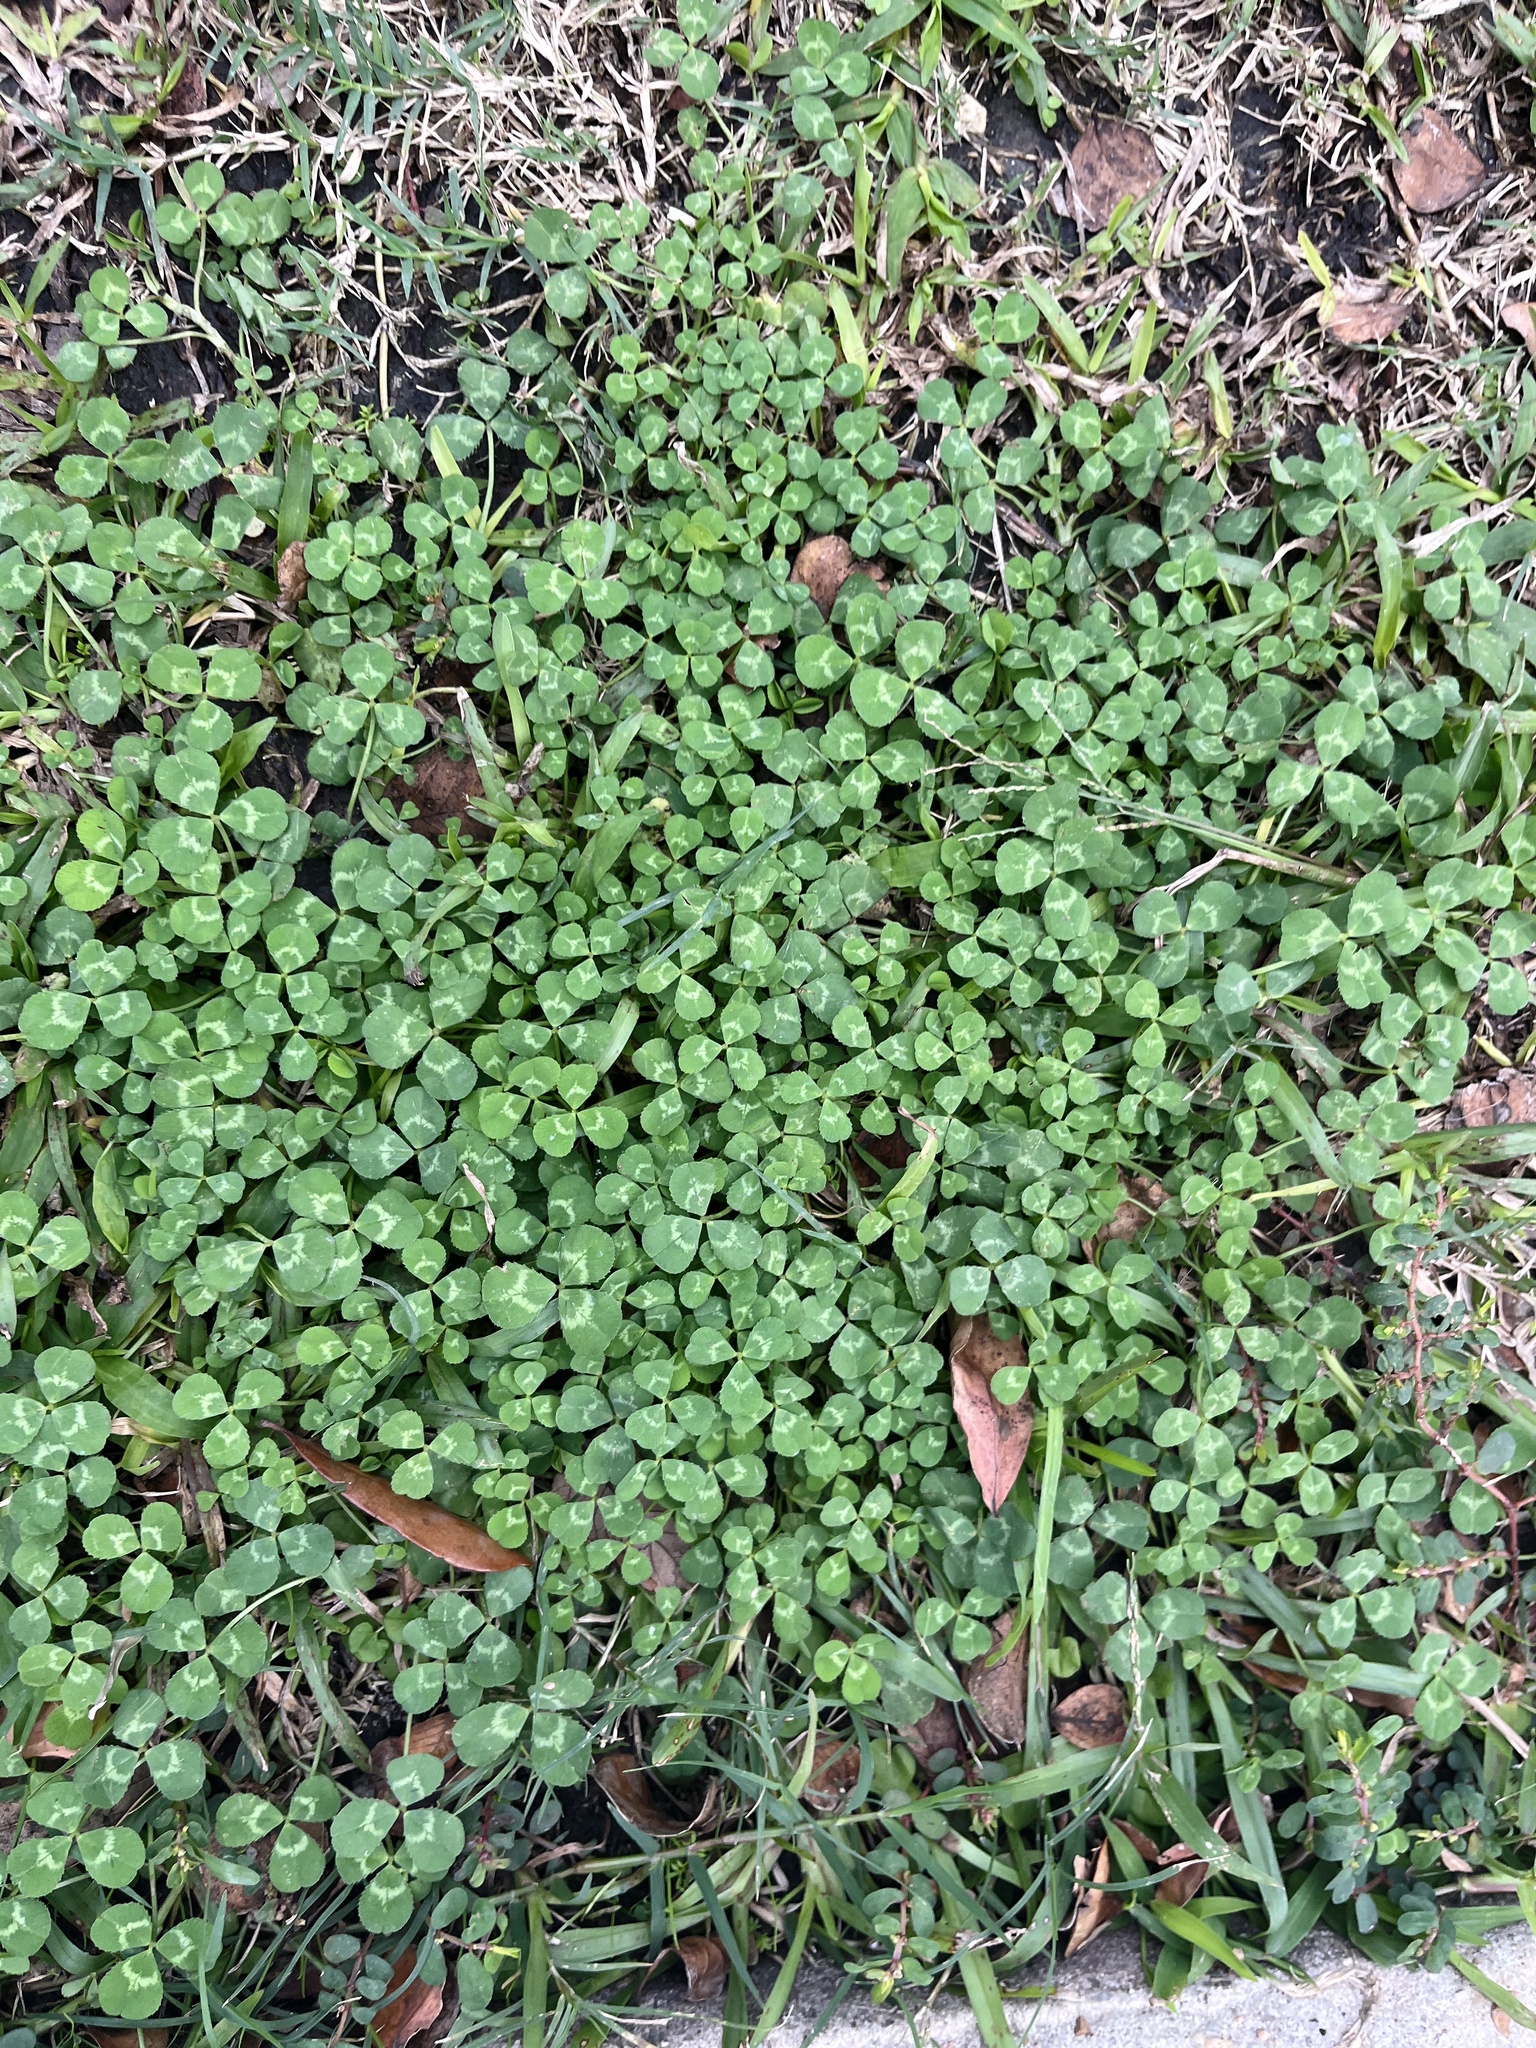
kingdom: Plantae
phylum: Tracheophyta
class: Magnoliopsida
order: Fabales
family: Fabaceae
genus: Trifolium
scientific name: Trifolium repens
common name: White clover
